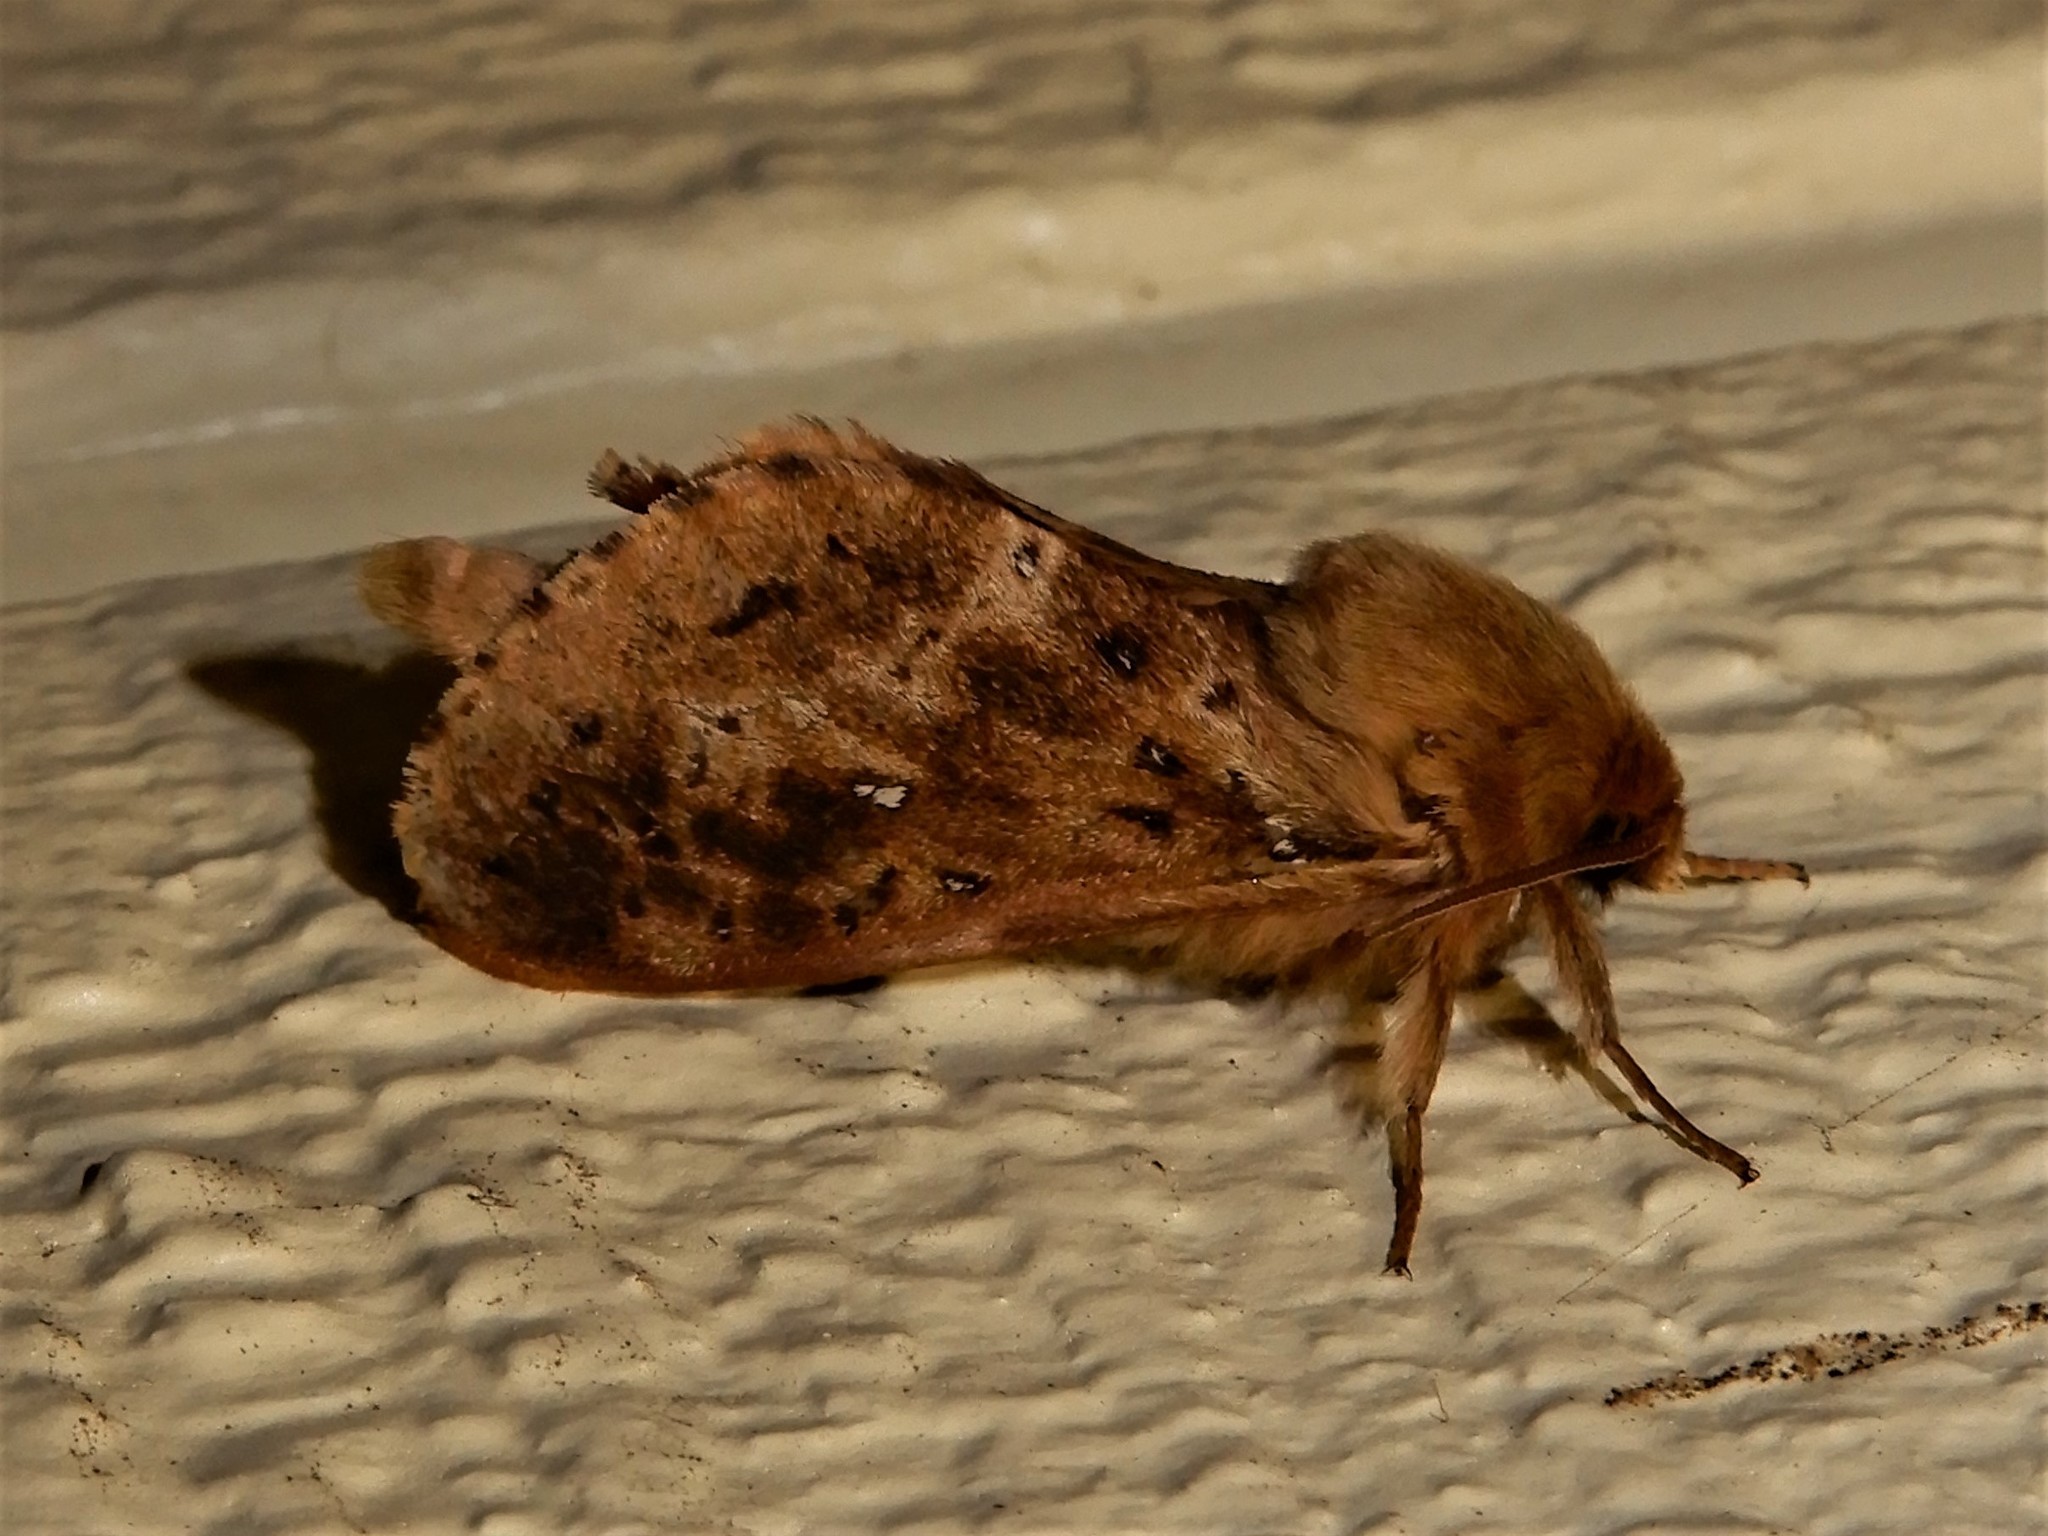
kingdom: Animalia
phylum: Arthropoda
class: Insecta
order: Lepidoptera
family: Hepialidae
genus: Wiseana
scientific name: Wiseana cervinata
